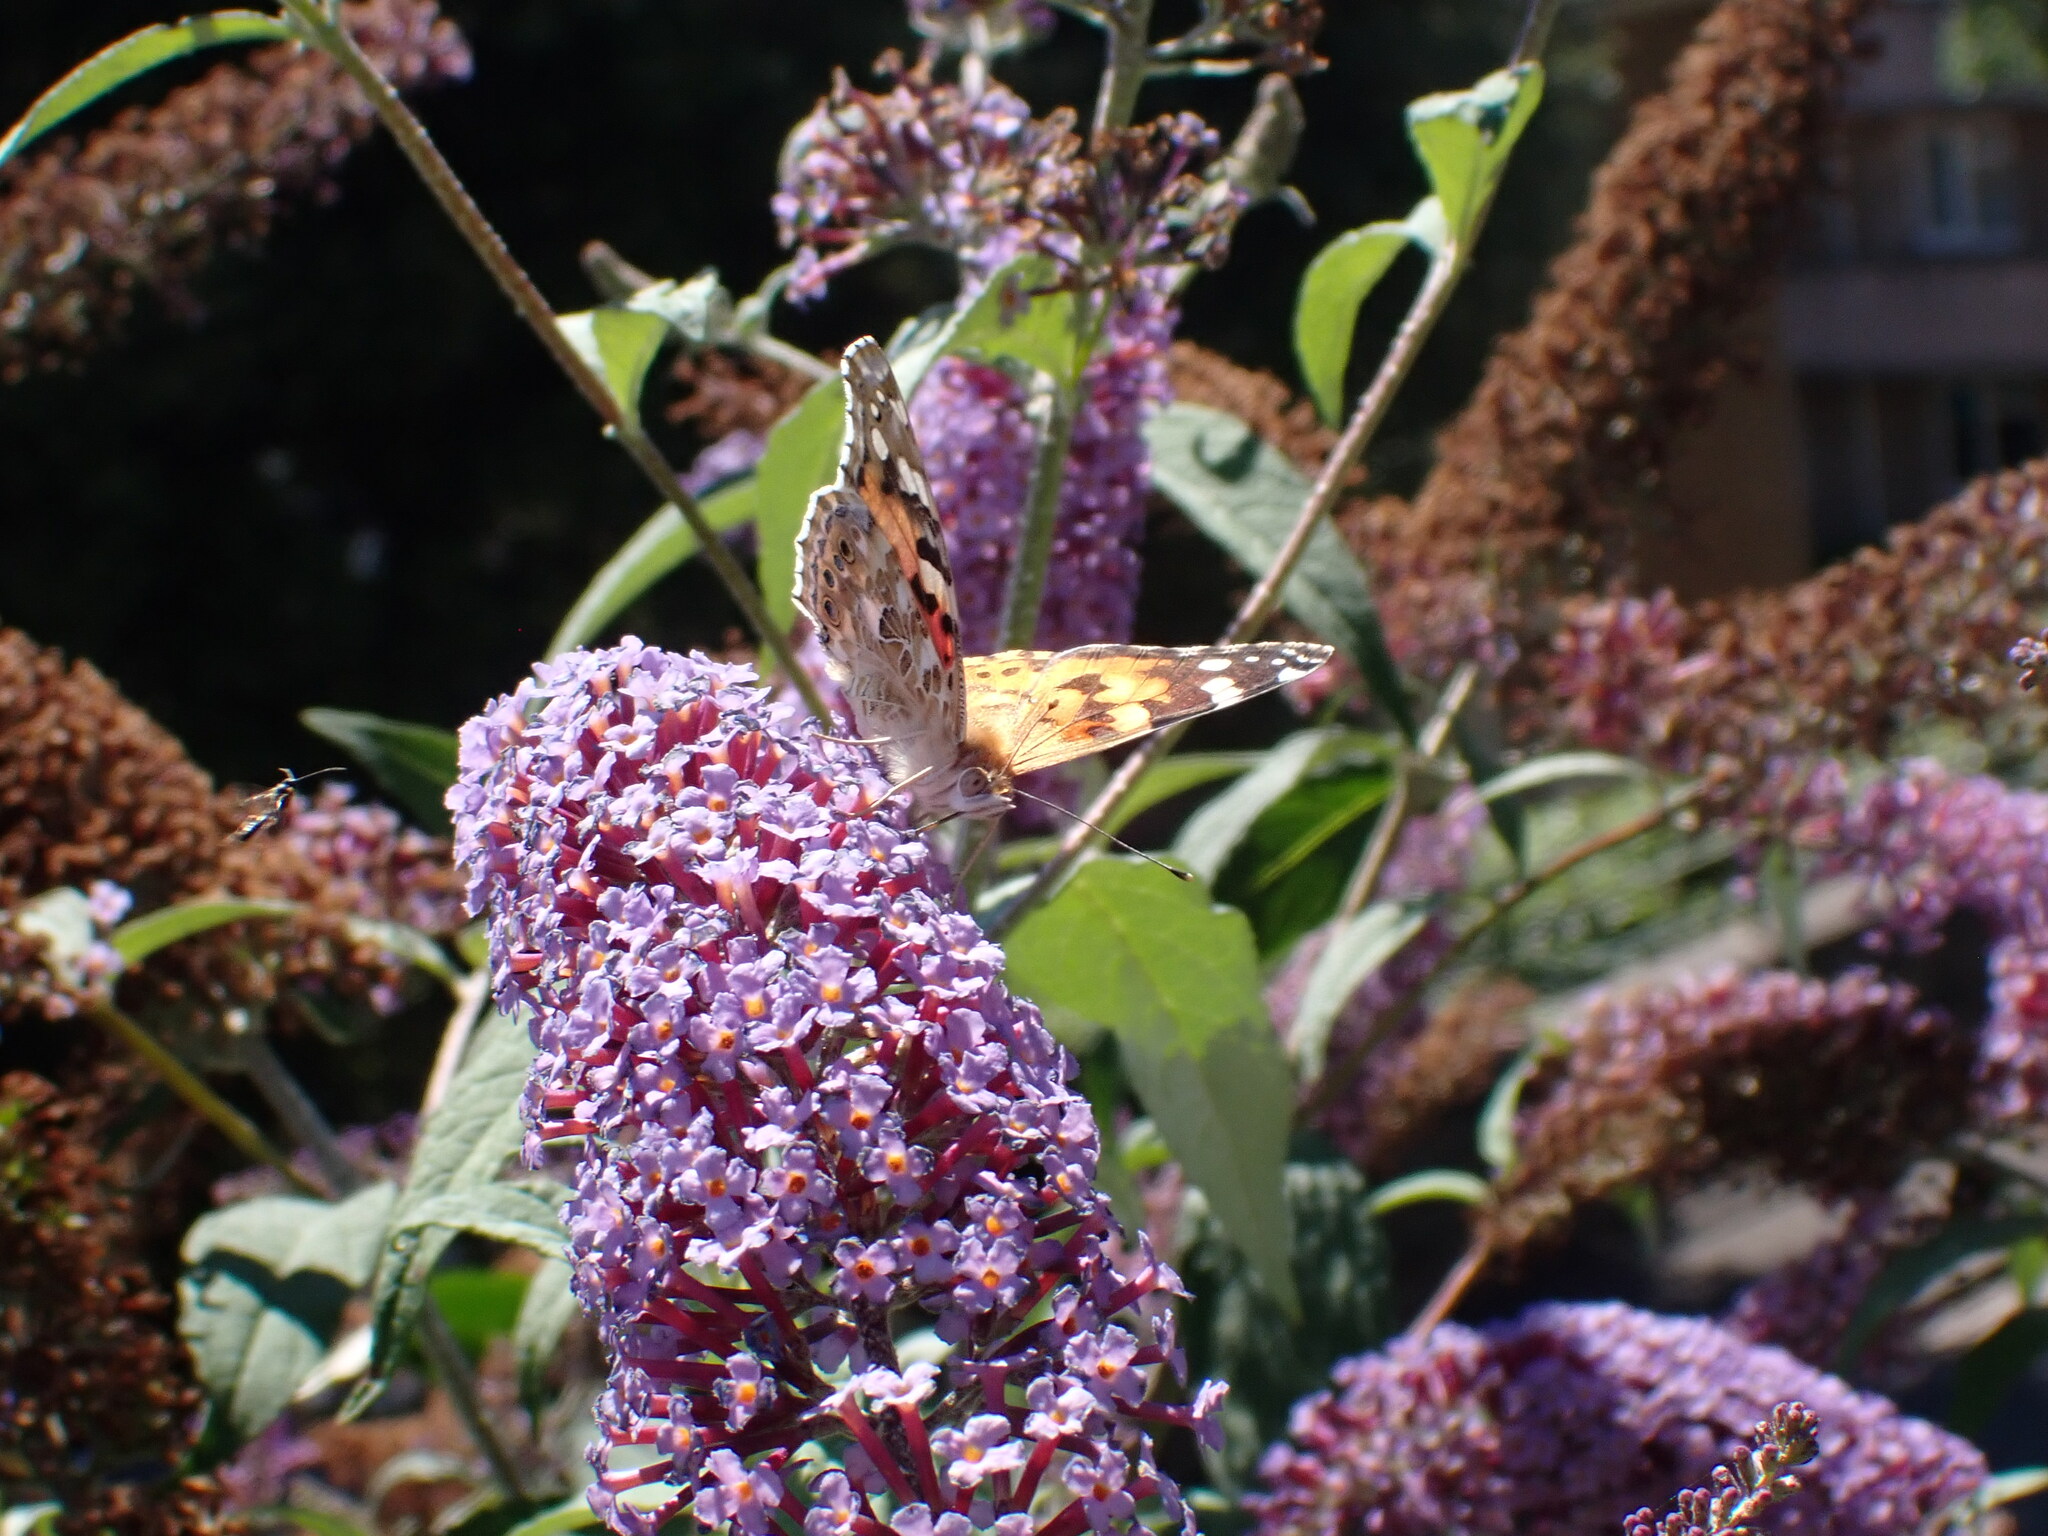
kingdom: Animalia
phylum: Arthropoda
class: Insecta
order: Lepidoptera
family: Nymphalidae
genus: Vanessa
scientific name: Vanessa cardui
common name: Painted lady
